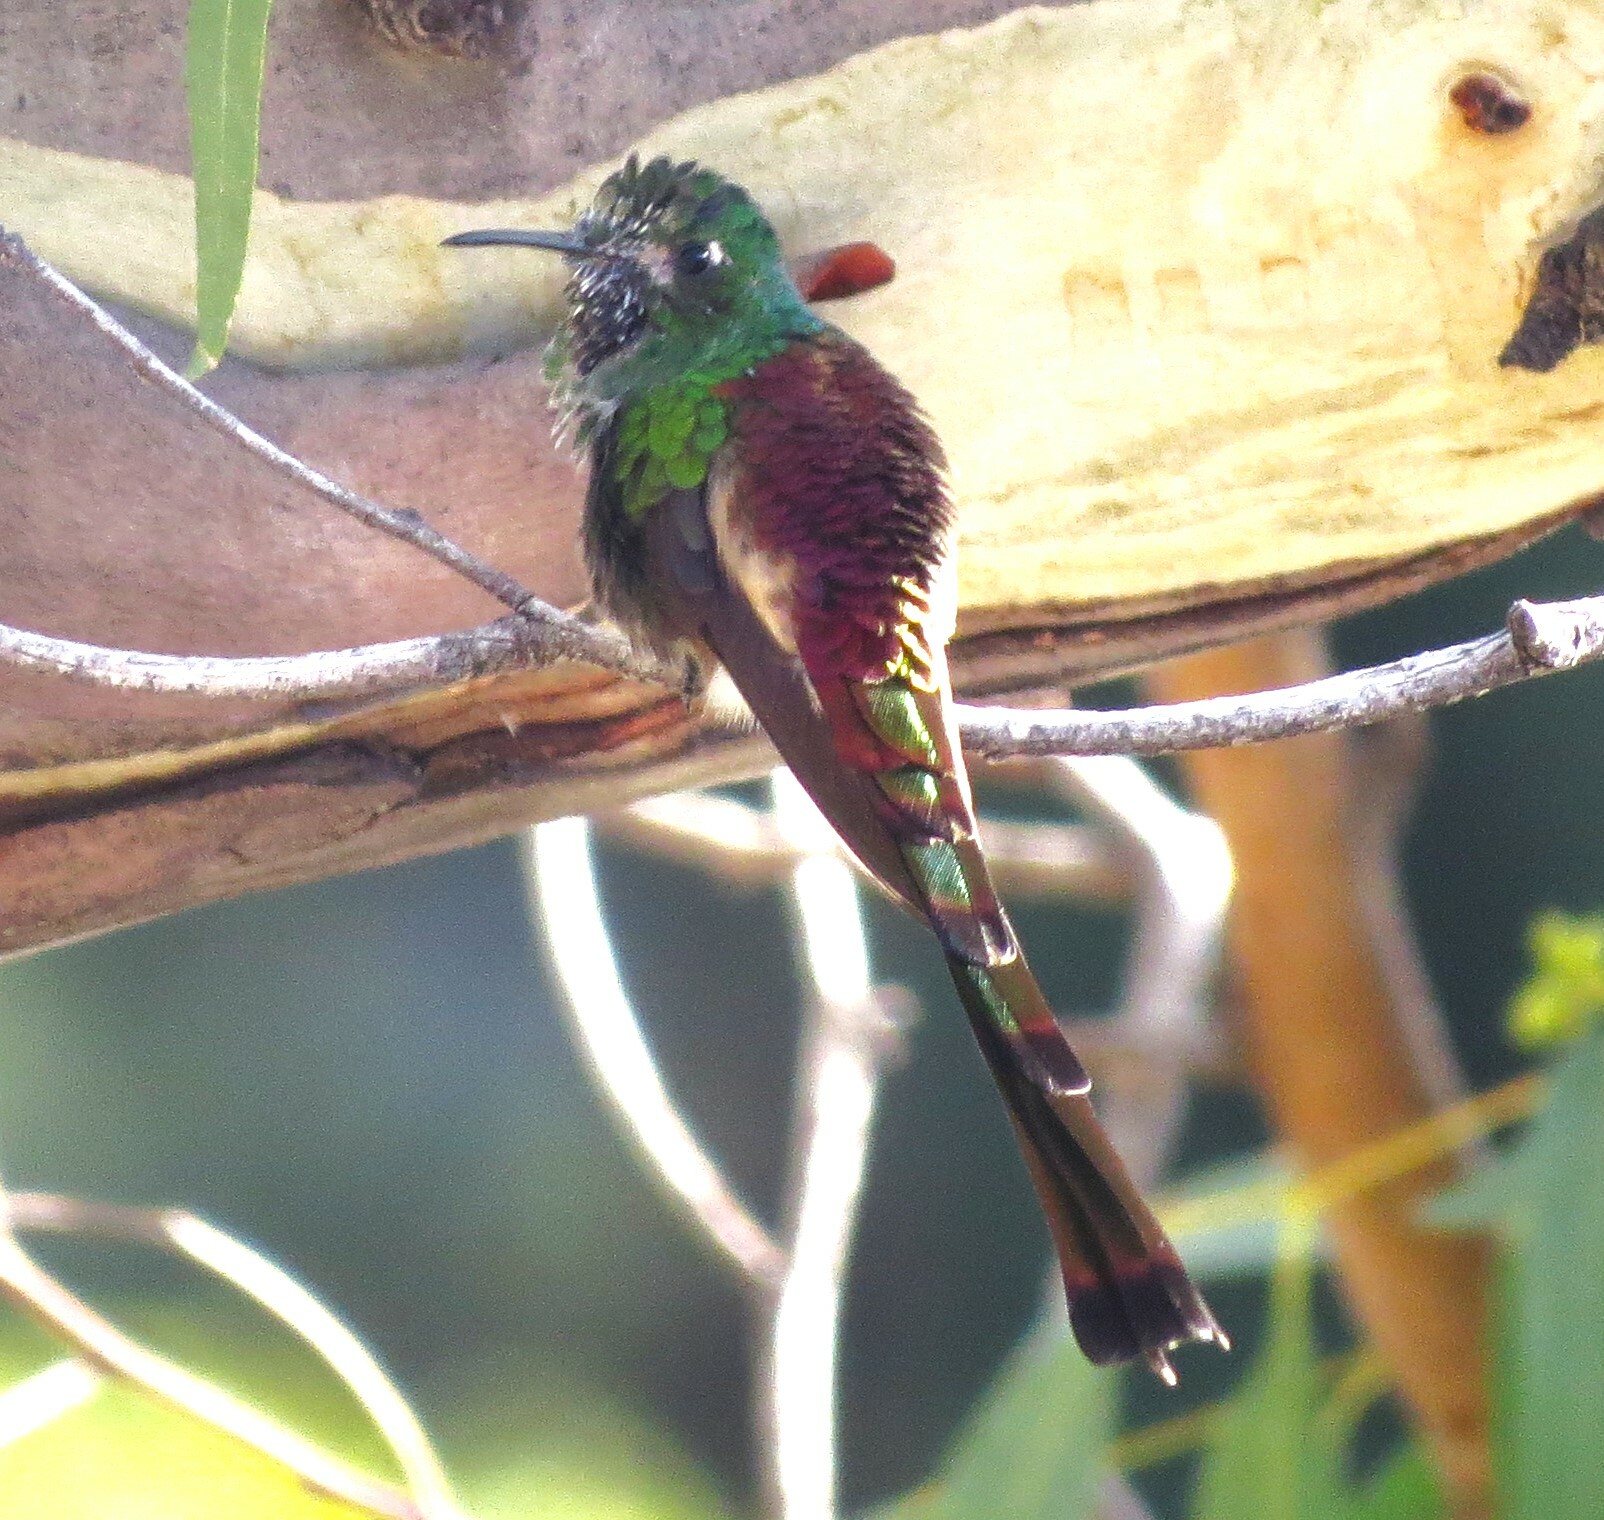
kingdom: Animalia
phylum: Chordata
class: Aves
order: Apodiformes
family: Trochilidae
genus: Sappho
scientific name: Sappho sparganurus
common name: Red-tailed comet
